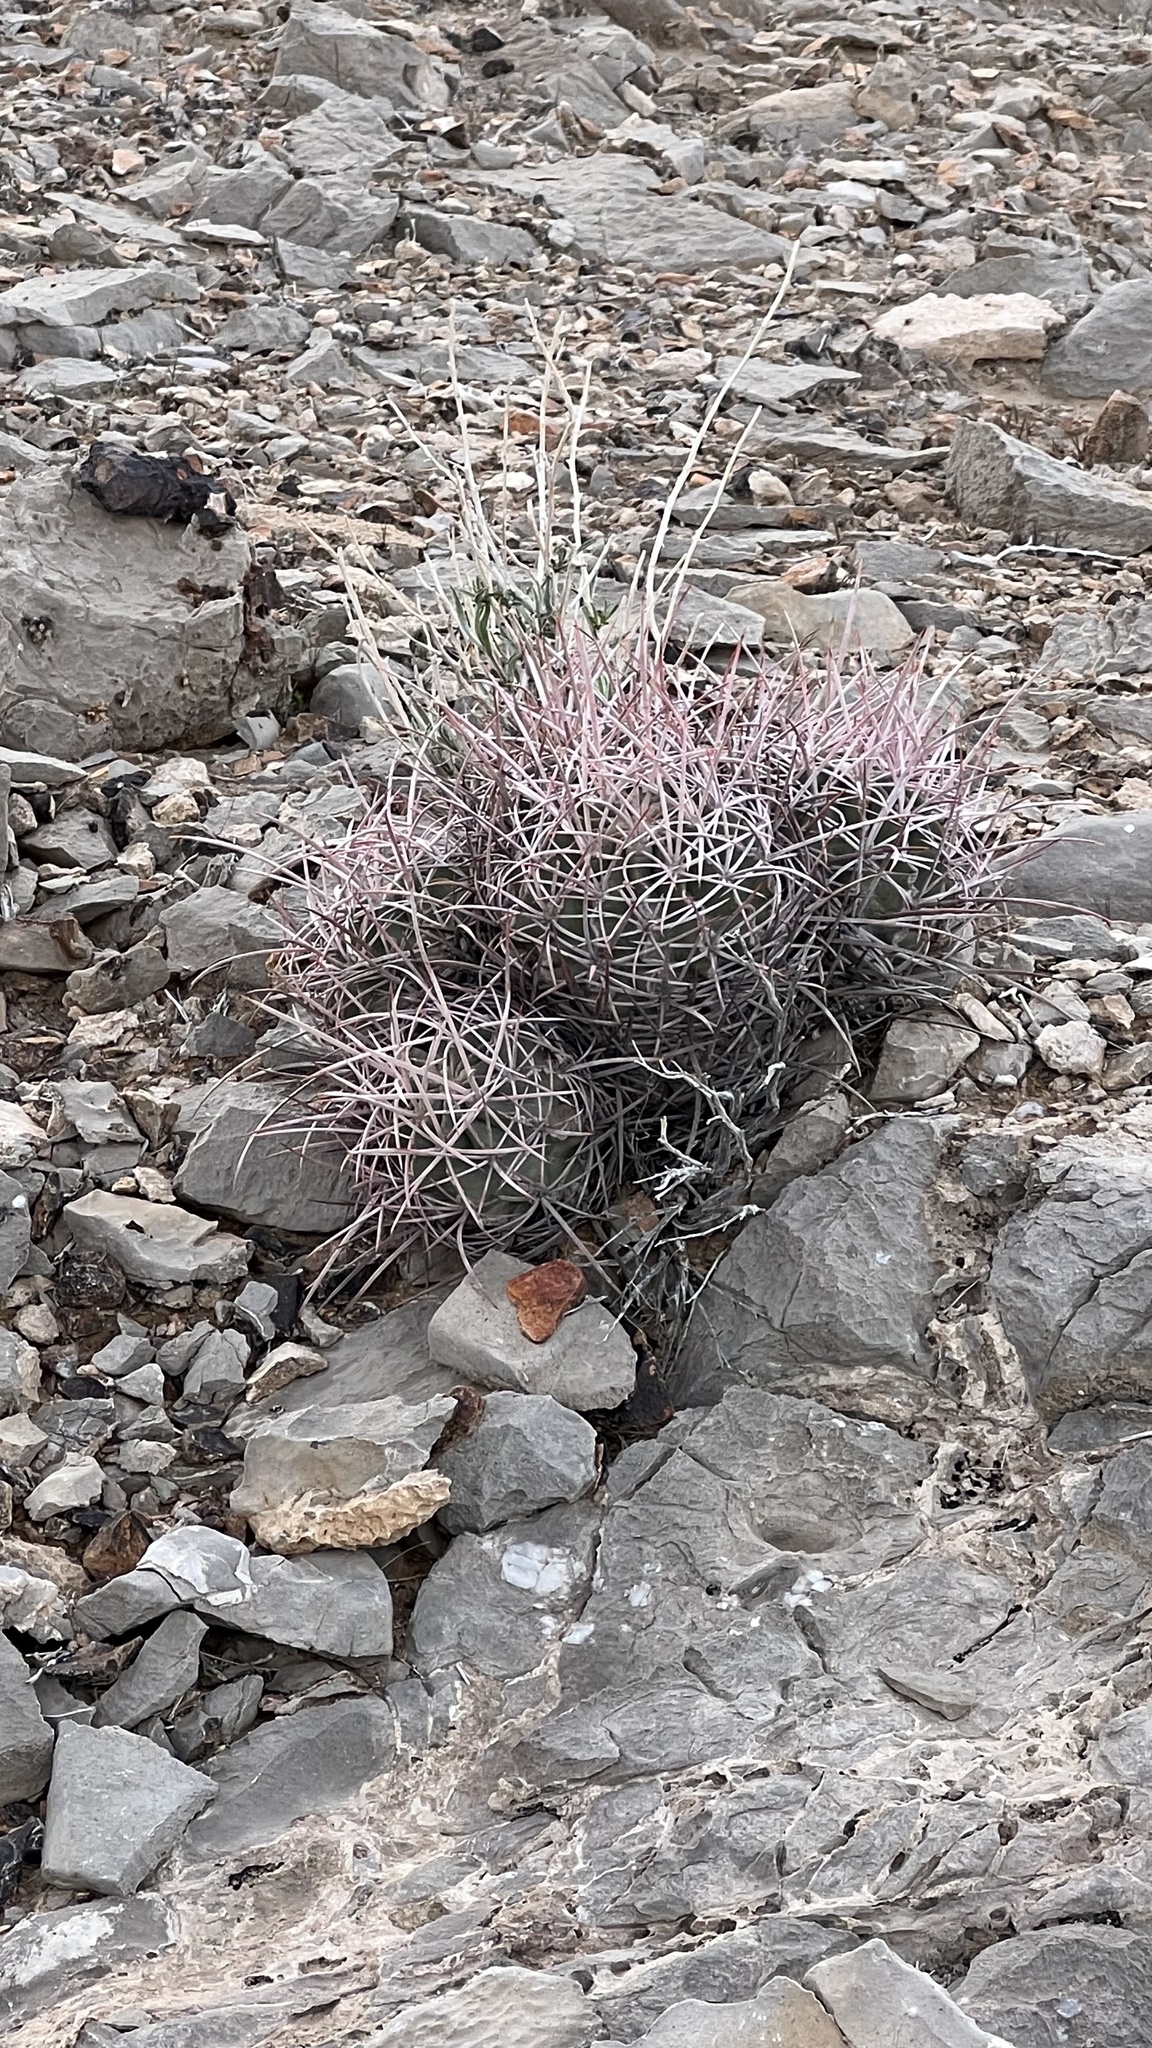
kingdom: Plantae
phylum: Tracheophyta
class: Magnoliopsida
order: Caryophyllales
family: Cactaceae
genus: Echinocactus
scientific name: Echinocactus polycephalus
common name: Cottontop cactus
